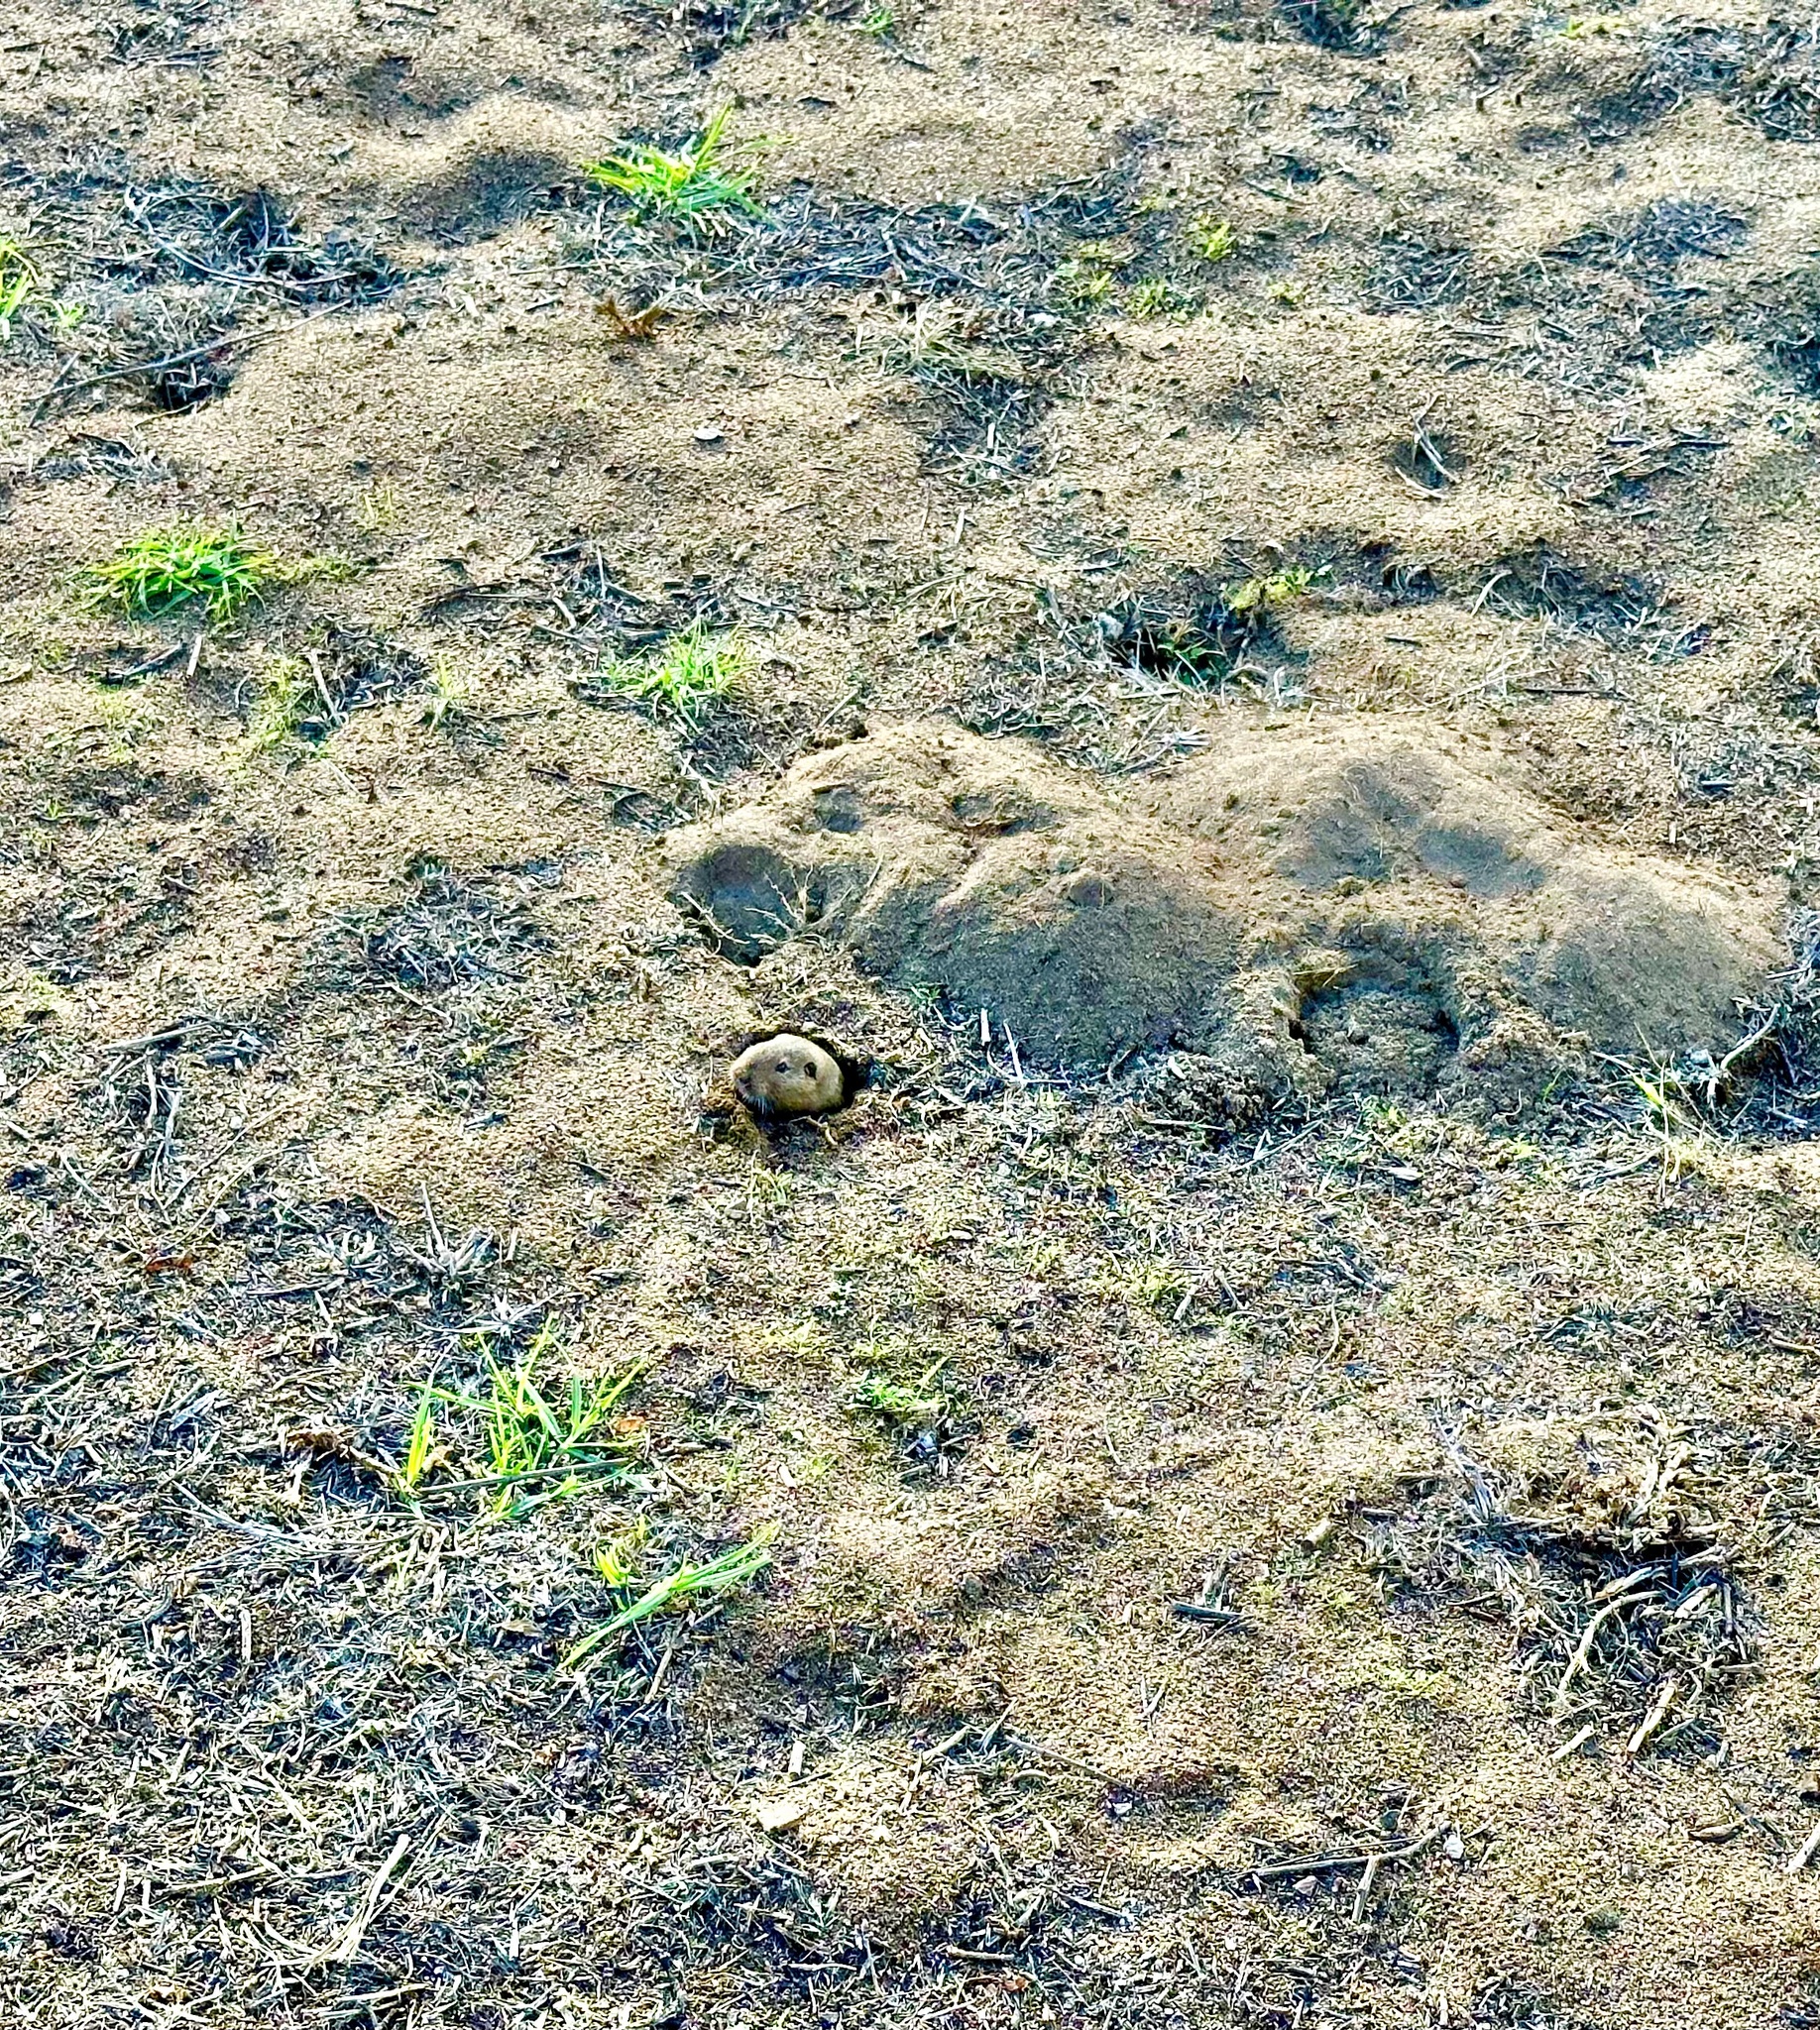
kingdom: Animalia
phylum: Chordata
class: Mammalia
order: Rodentia
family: Geomyidae
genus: Thomomys
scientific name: Thomomys bottae
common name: Botta's pocket gopher
